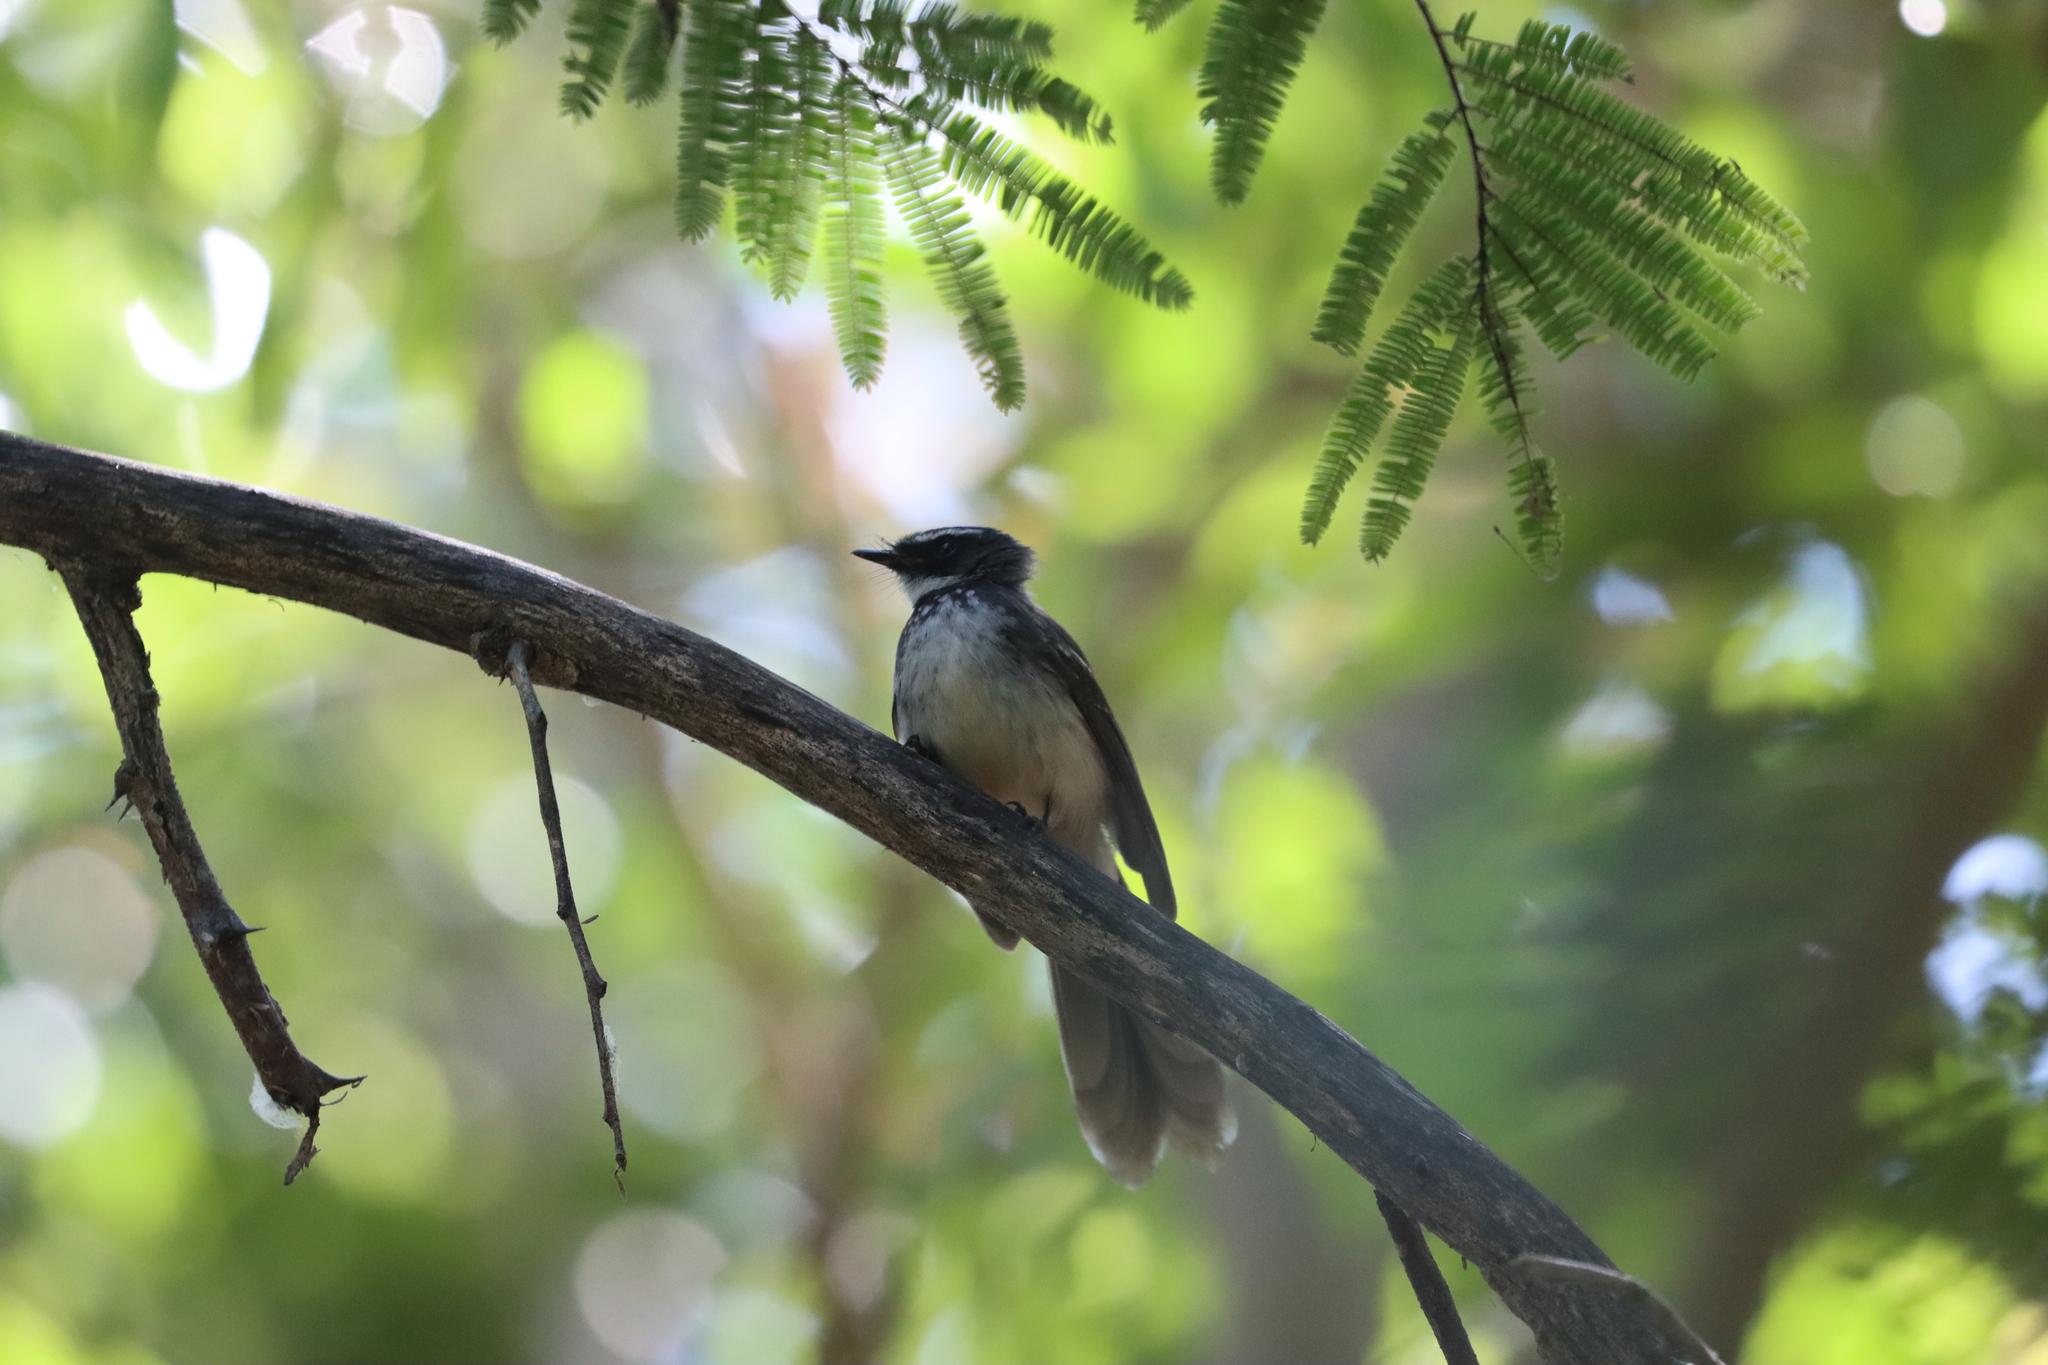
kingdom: Animalia
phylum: Chordata
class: Aves
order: Passeriformes
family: Rhipiduridae
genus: Rhipidura
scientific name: Rhipidura albogularis
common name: White-spotted fantail
